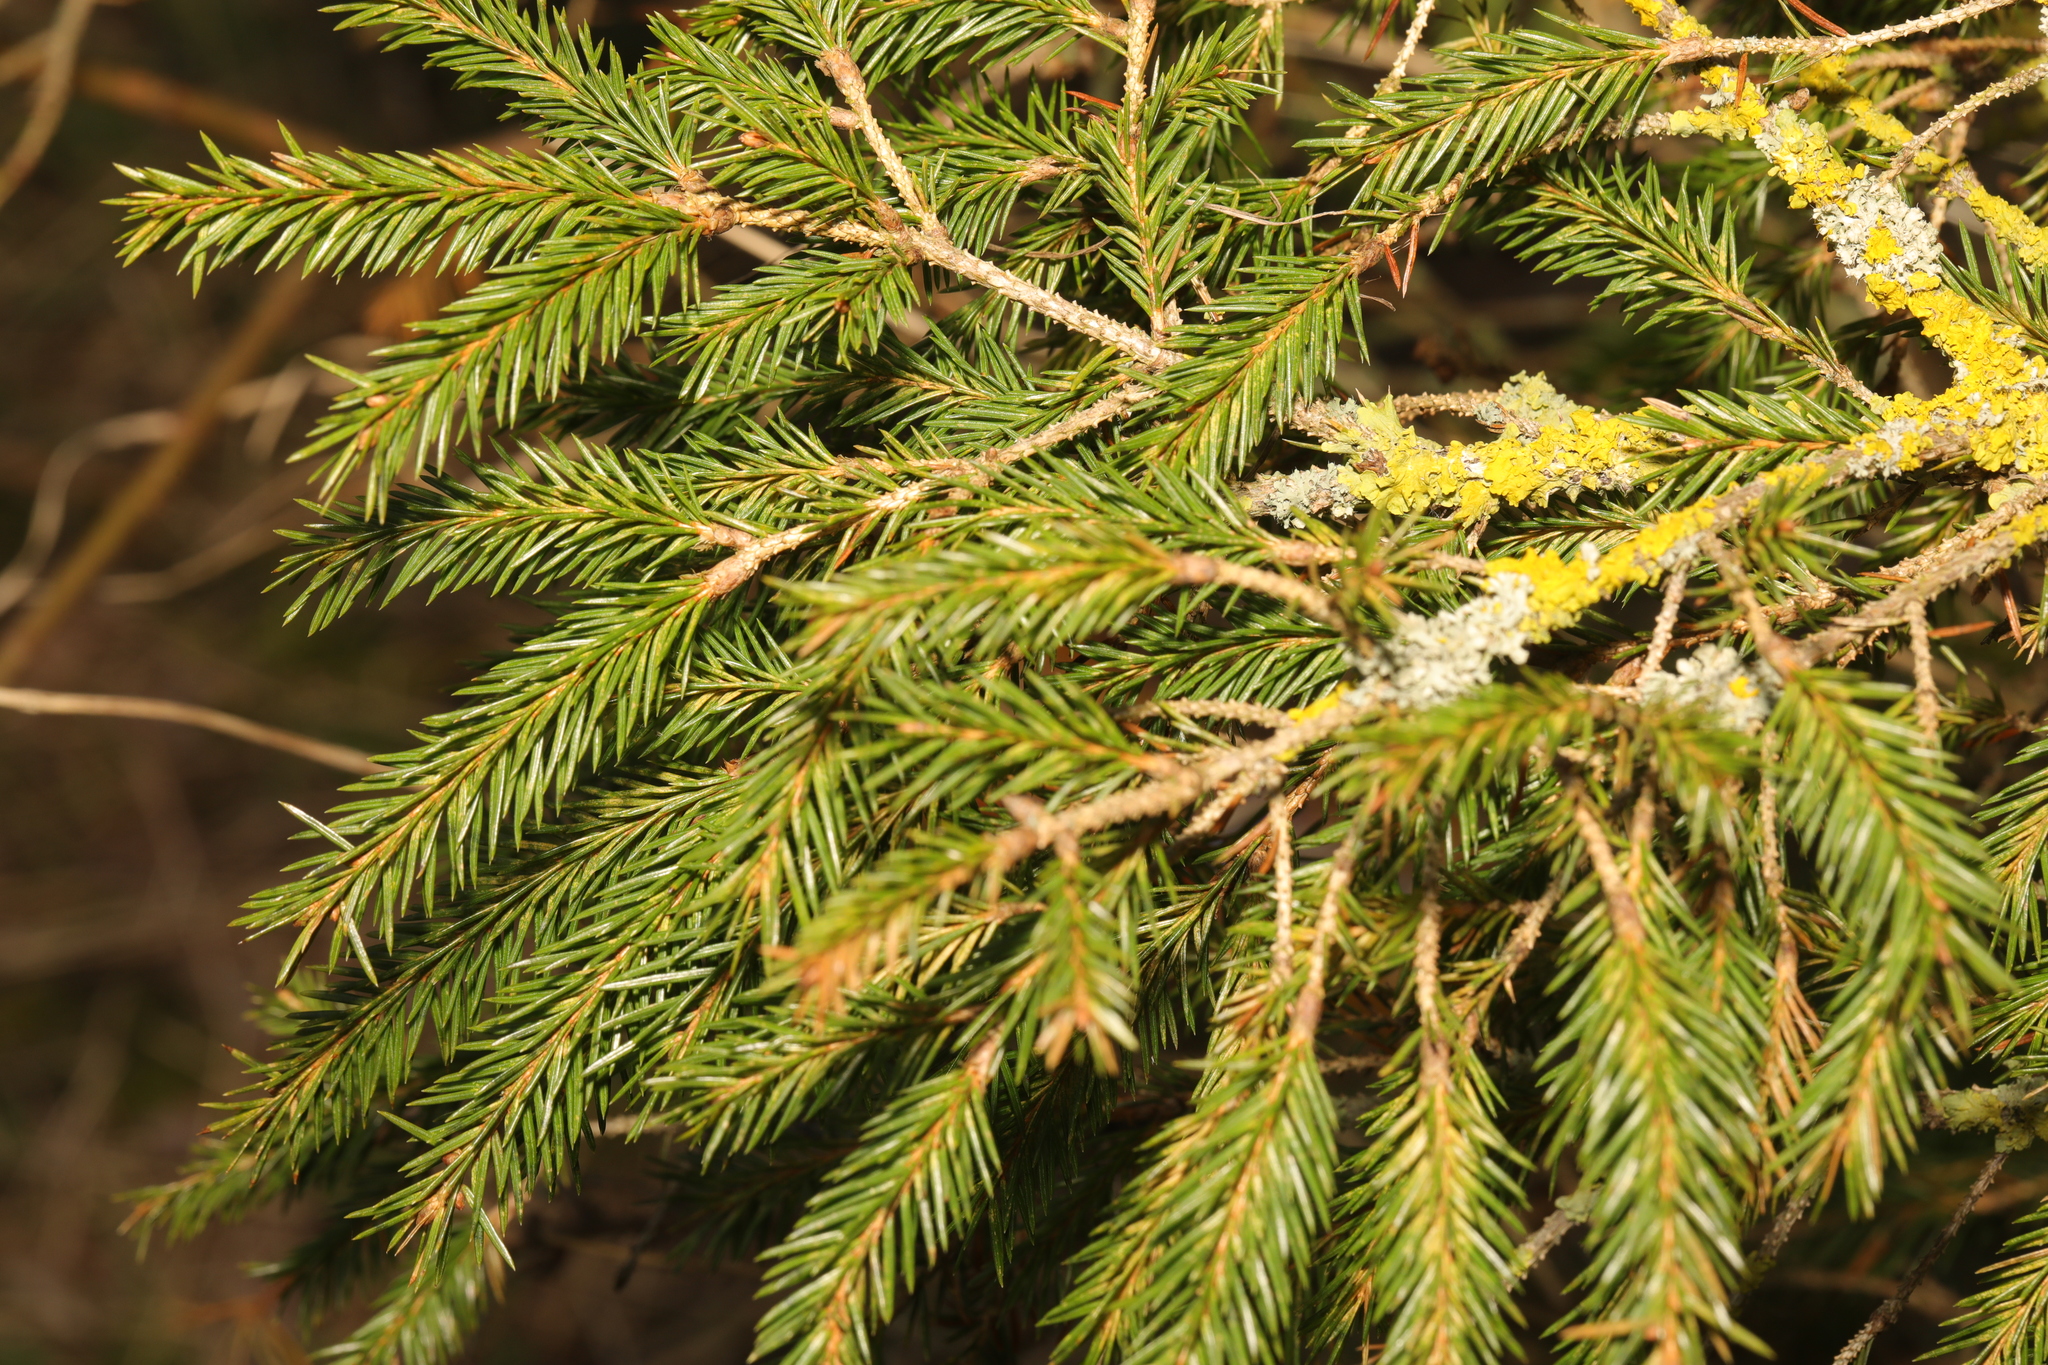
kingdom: Plantae
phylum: Tracheophyta
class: Pinopsida
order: Pinales
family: Pinaceae
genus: Picea
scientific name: Picea abies
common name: Norway spruce
